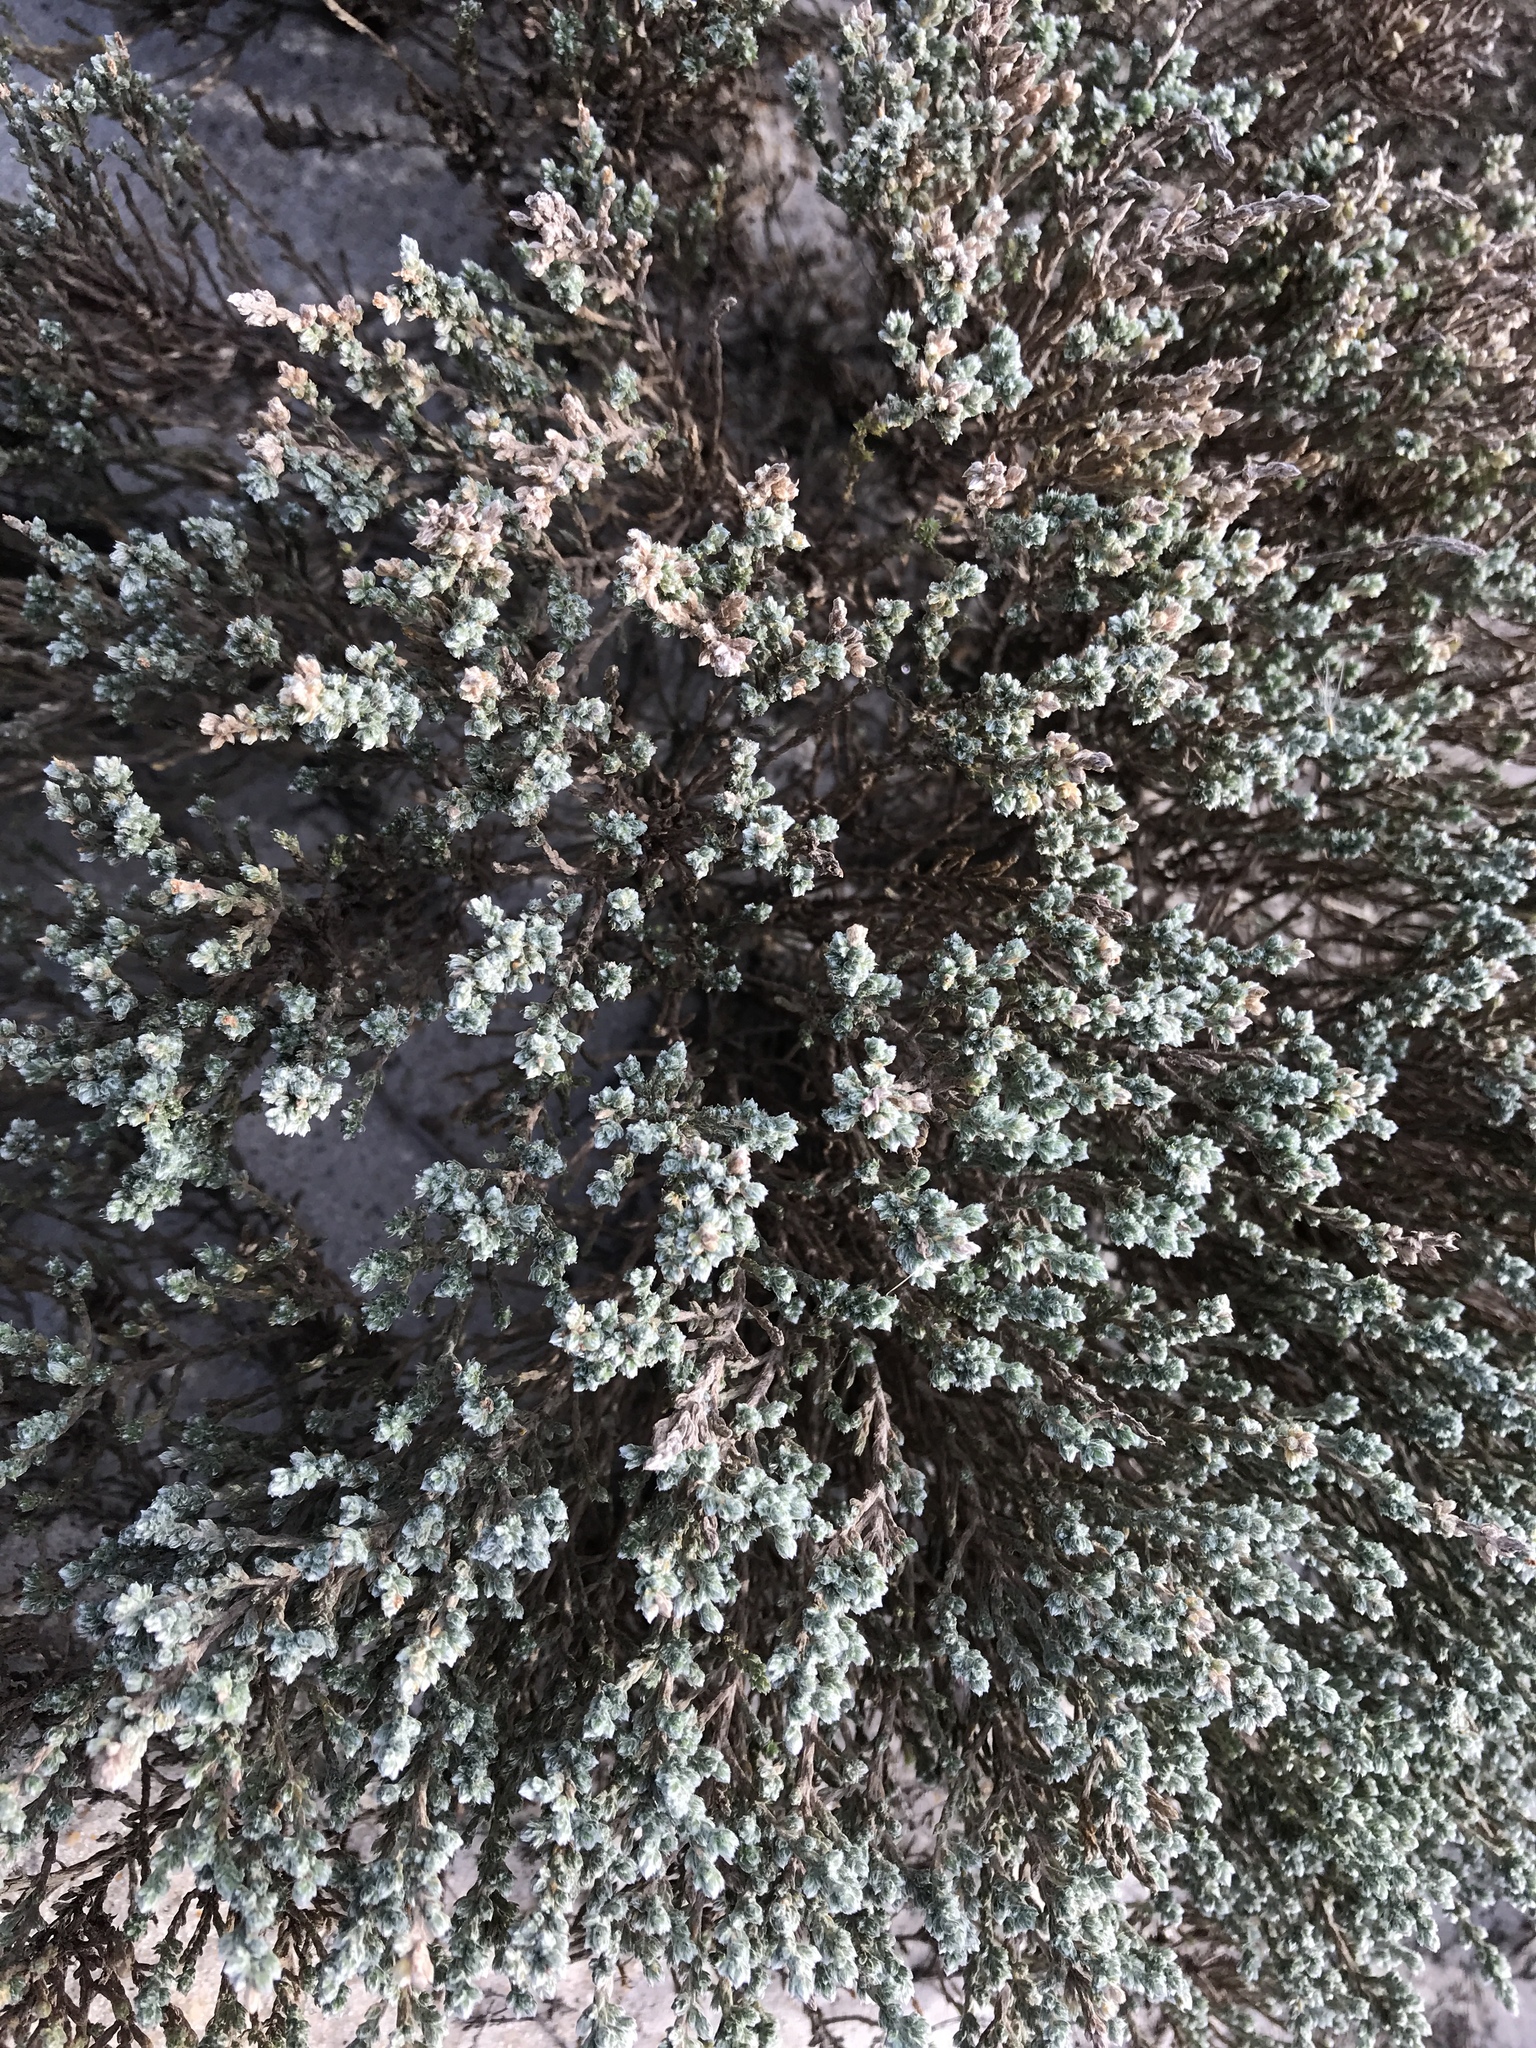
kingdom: Plantae
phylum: Tracheophyta
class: Magnoliopsida
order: Malvales
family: Cistaceae
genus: Hudsonia
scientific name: Hudsonia tomentosa
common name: Beach-heath
